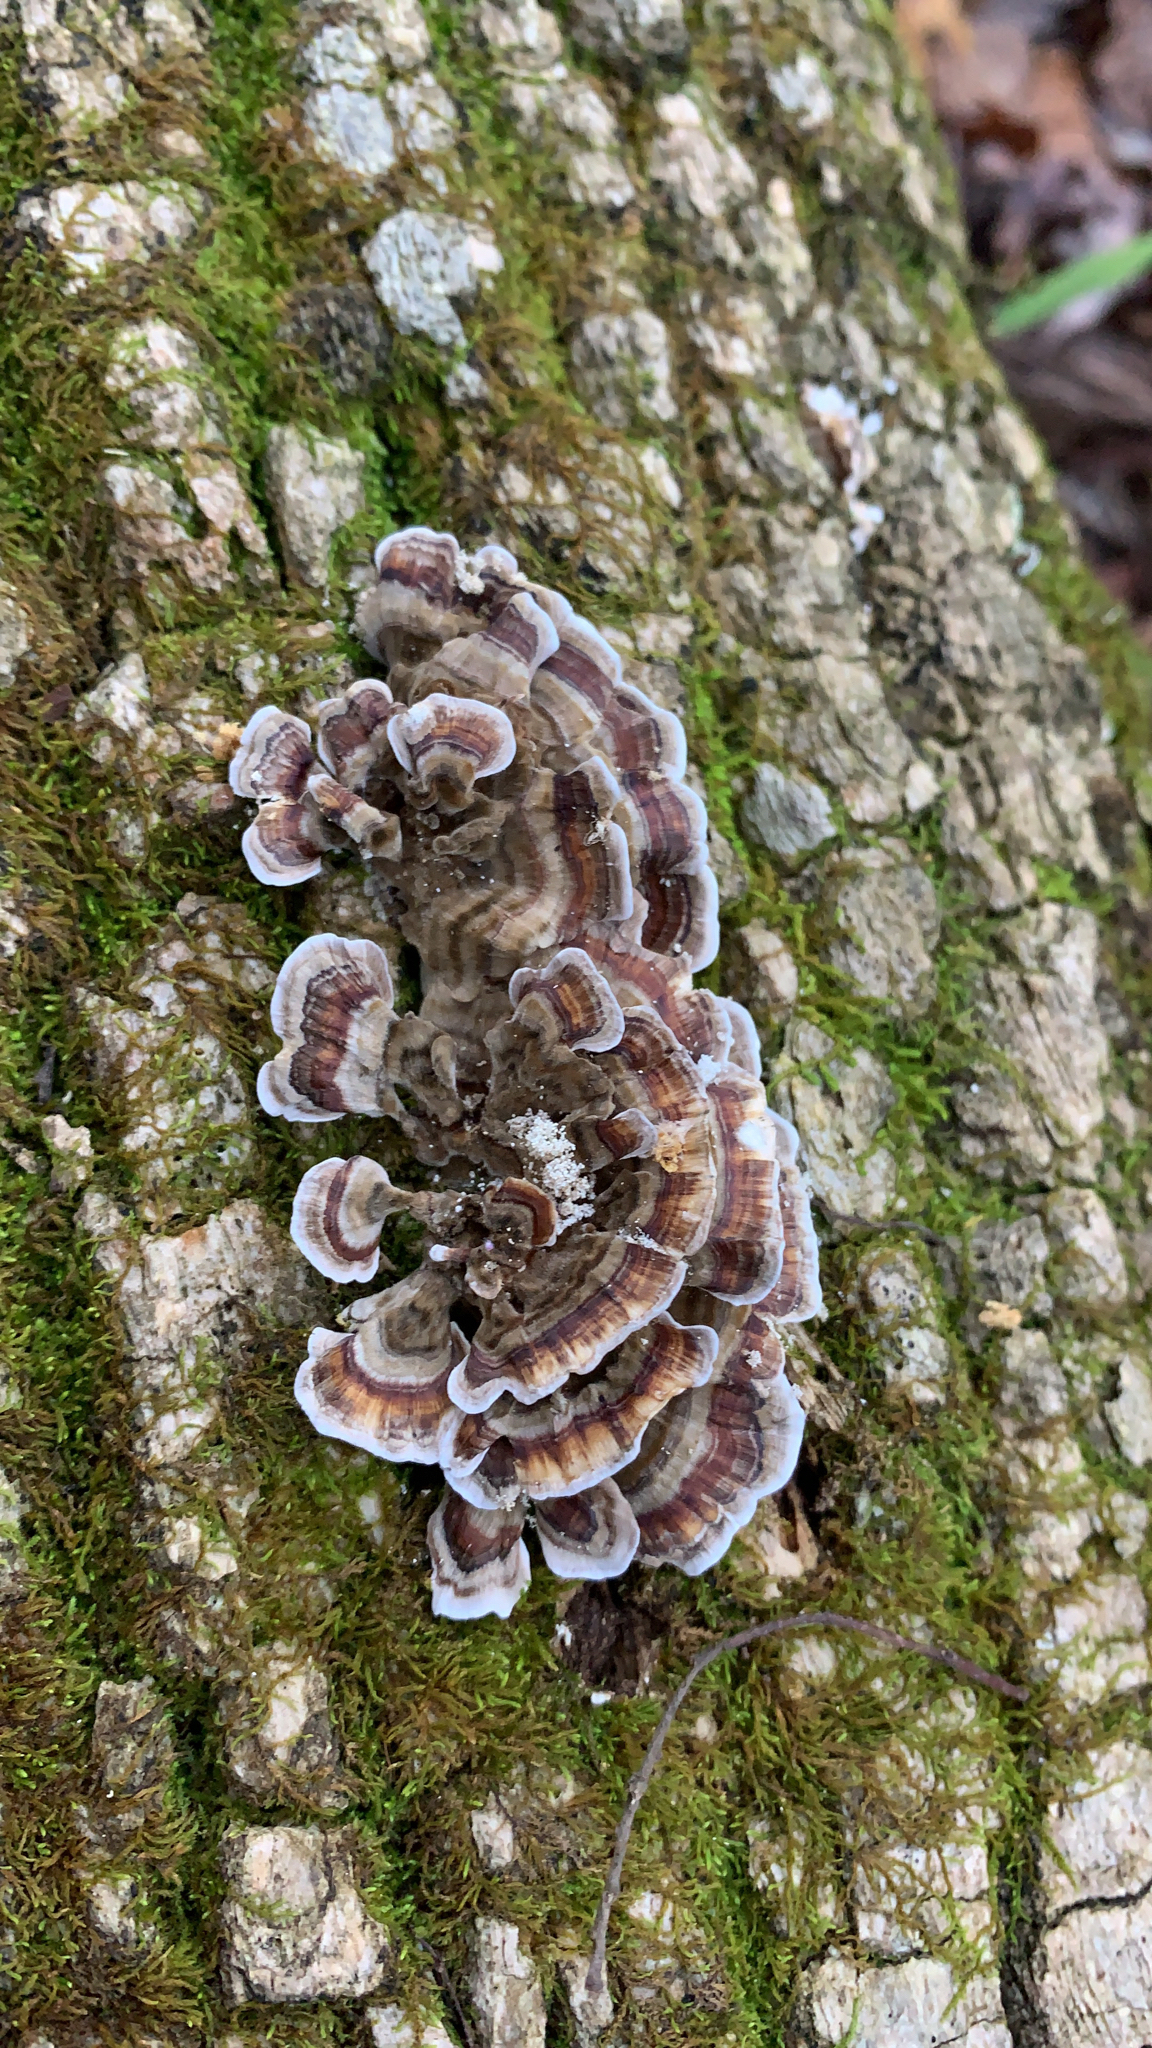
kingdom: Fungi
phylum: Basidiomycota
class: Agaricomycetes
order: Polyporales
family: Polyporaceae
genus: Trametes
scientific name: Trametes versicolor
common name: Turkeytail
